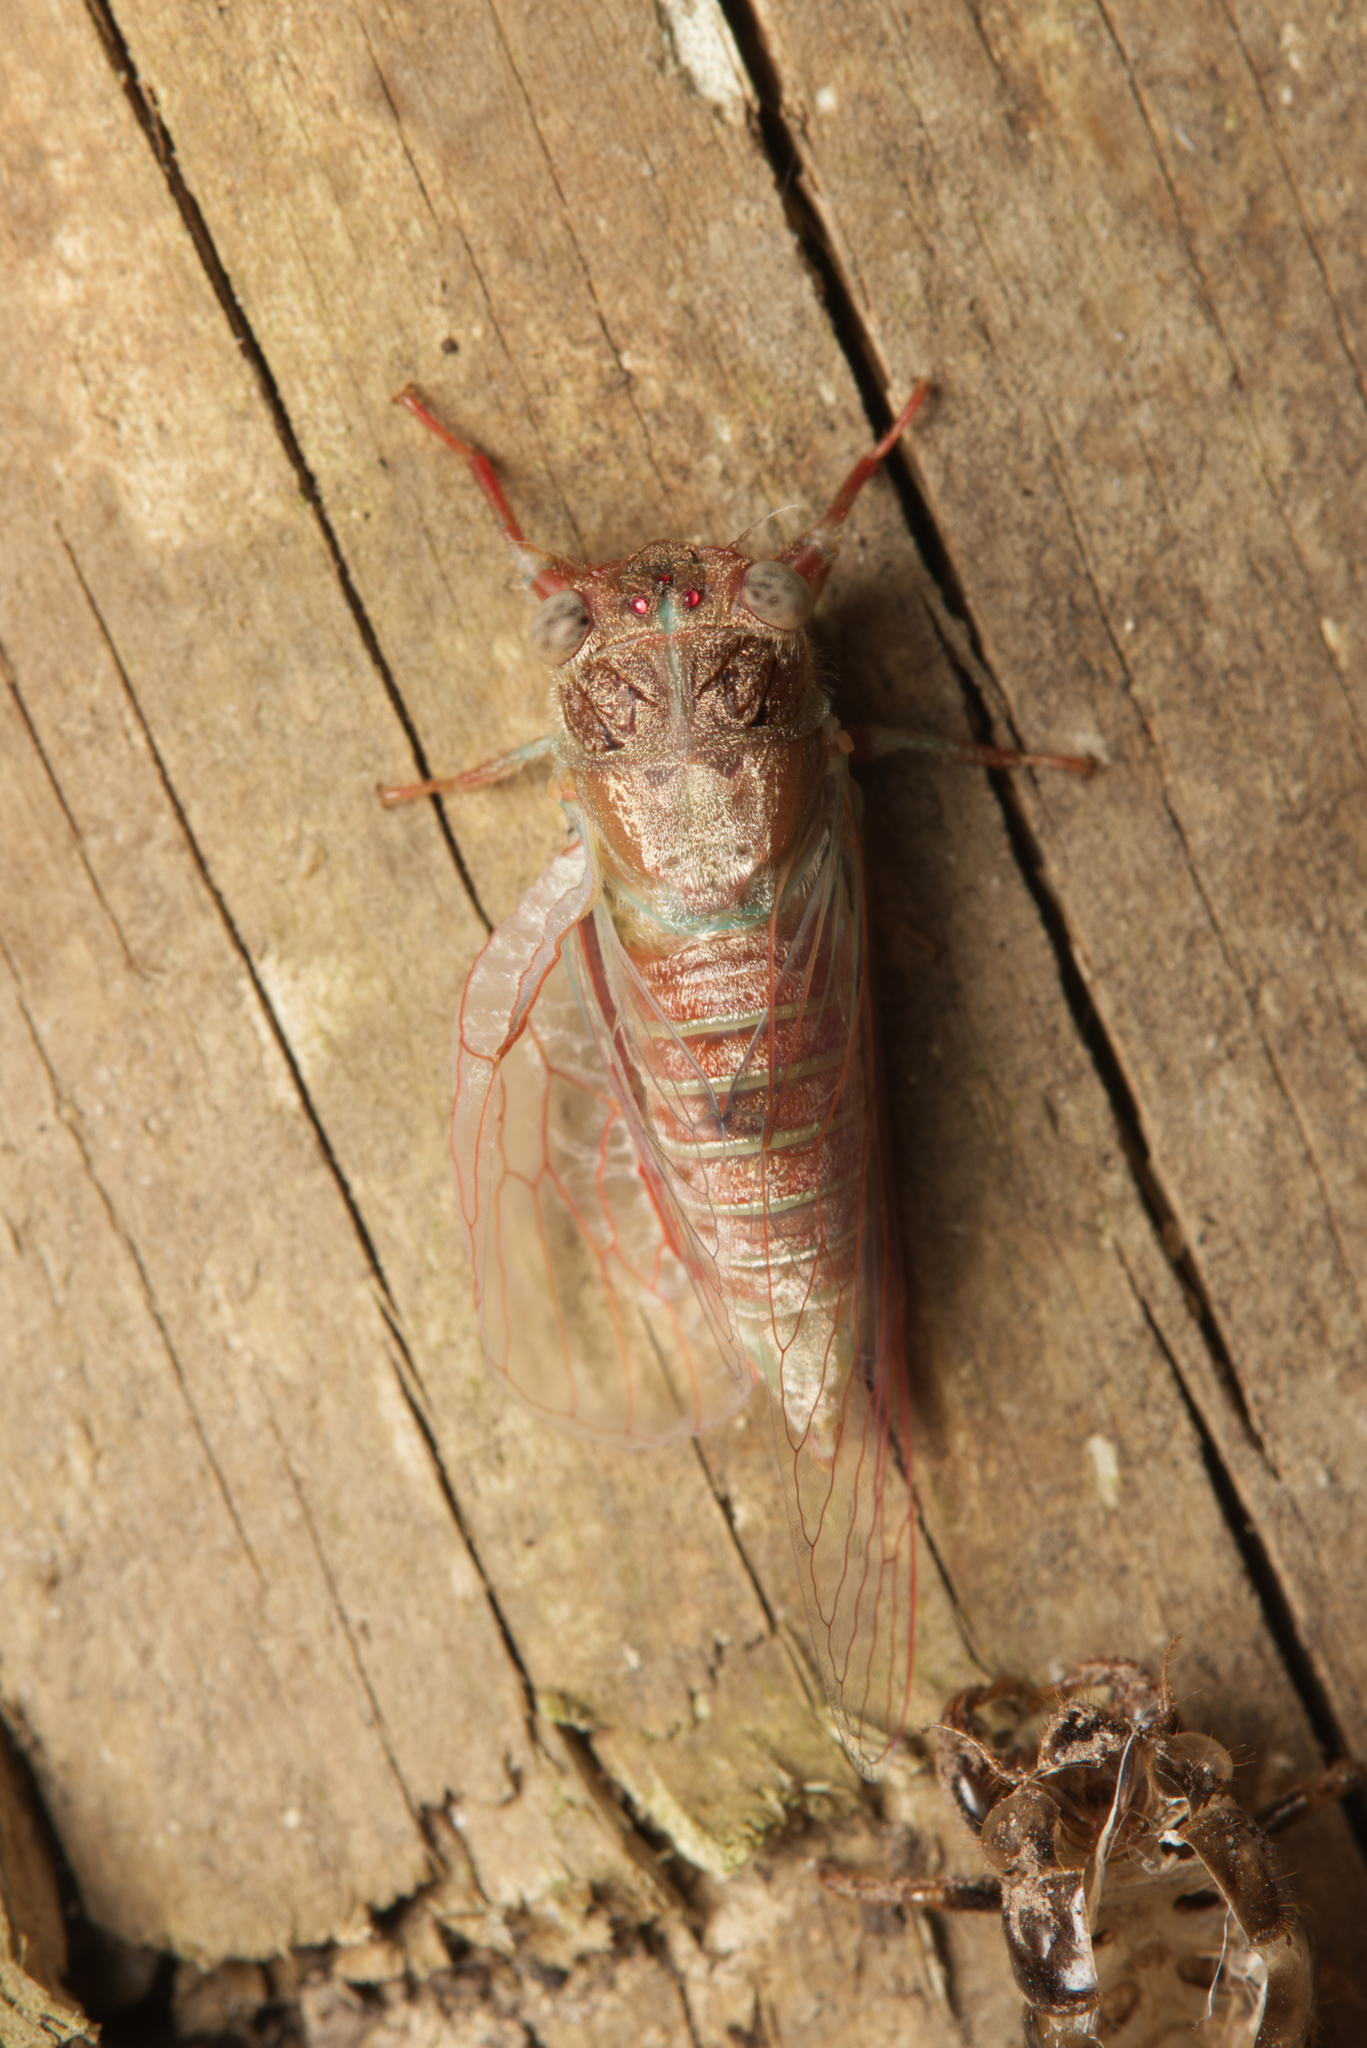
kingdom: Animalia
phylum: Arthropoda
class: Insecta
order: Hemiptera
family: Cicadidae
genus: Haemopsalta
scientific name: Haemopsalta rubea
